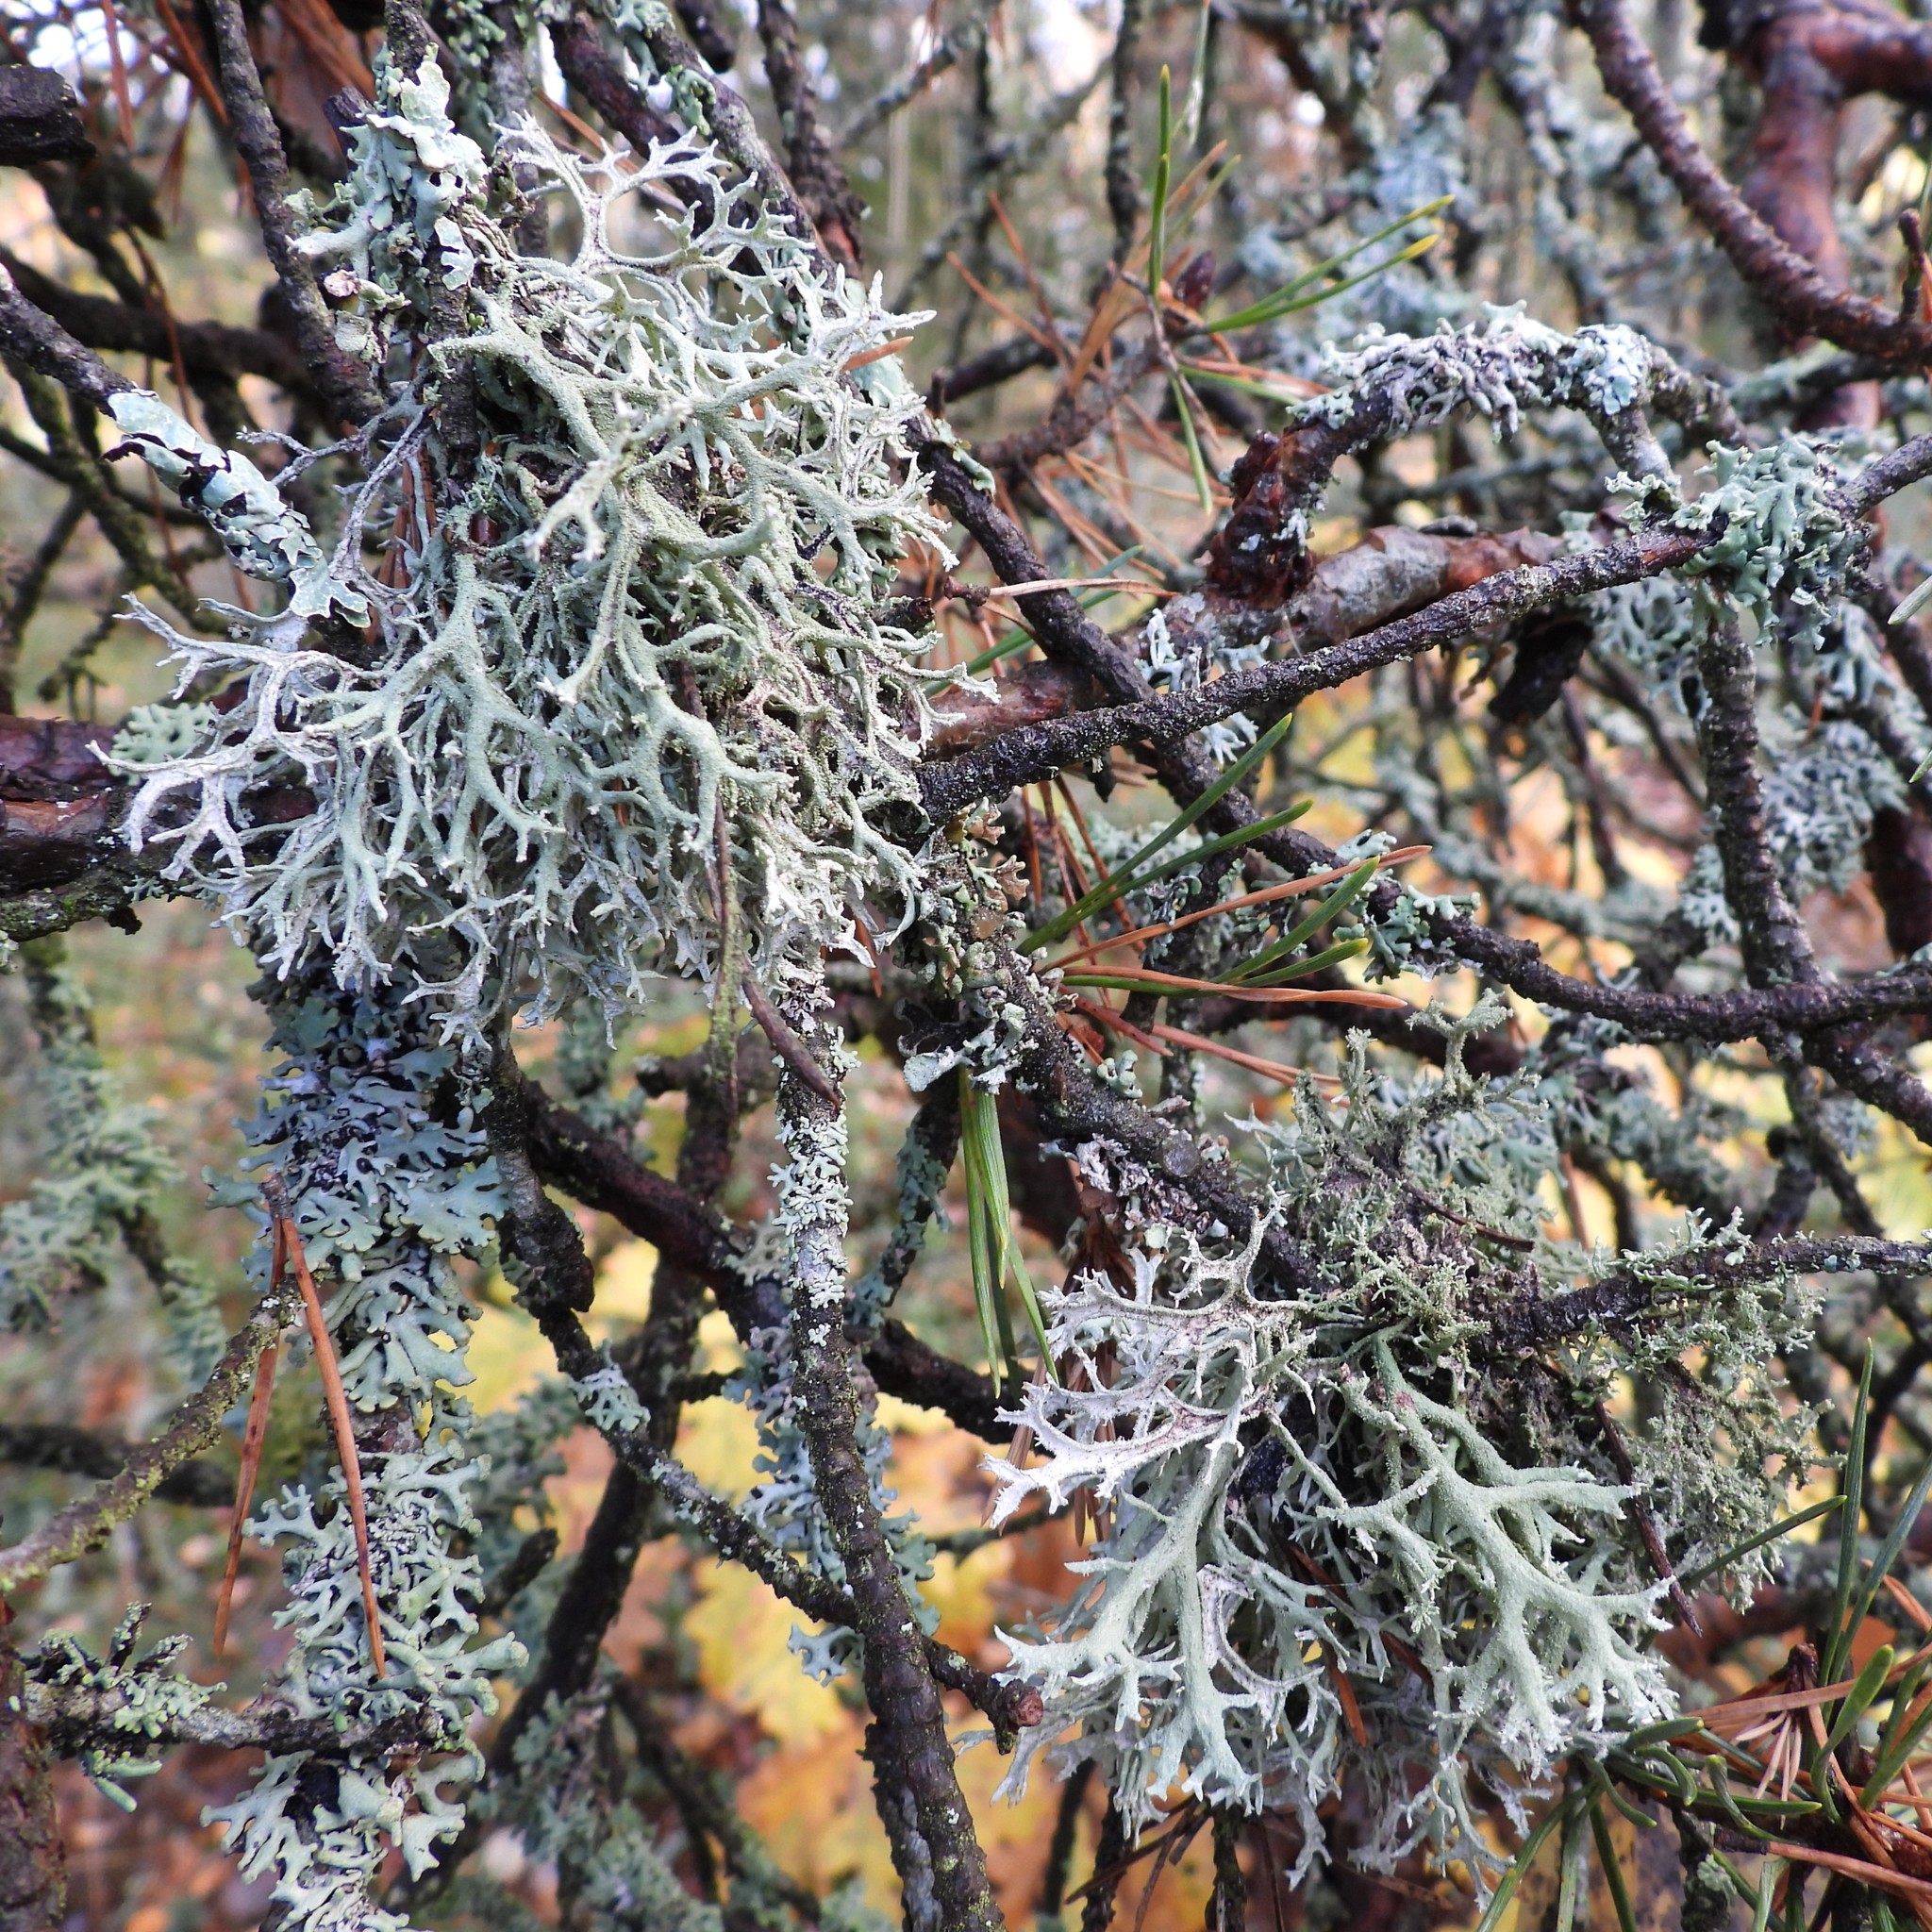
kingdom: Fungi
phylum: Ascomycota
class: Lecanoromycetes
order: Lecanorales
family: Parmeliaceae
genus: Pseudevernia
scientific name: Pseudevernia furfuracea
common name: Tree moss
